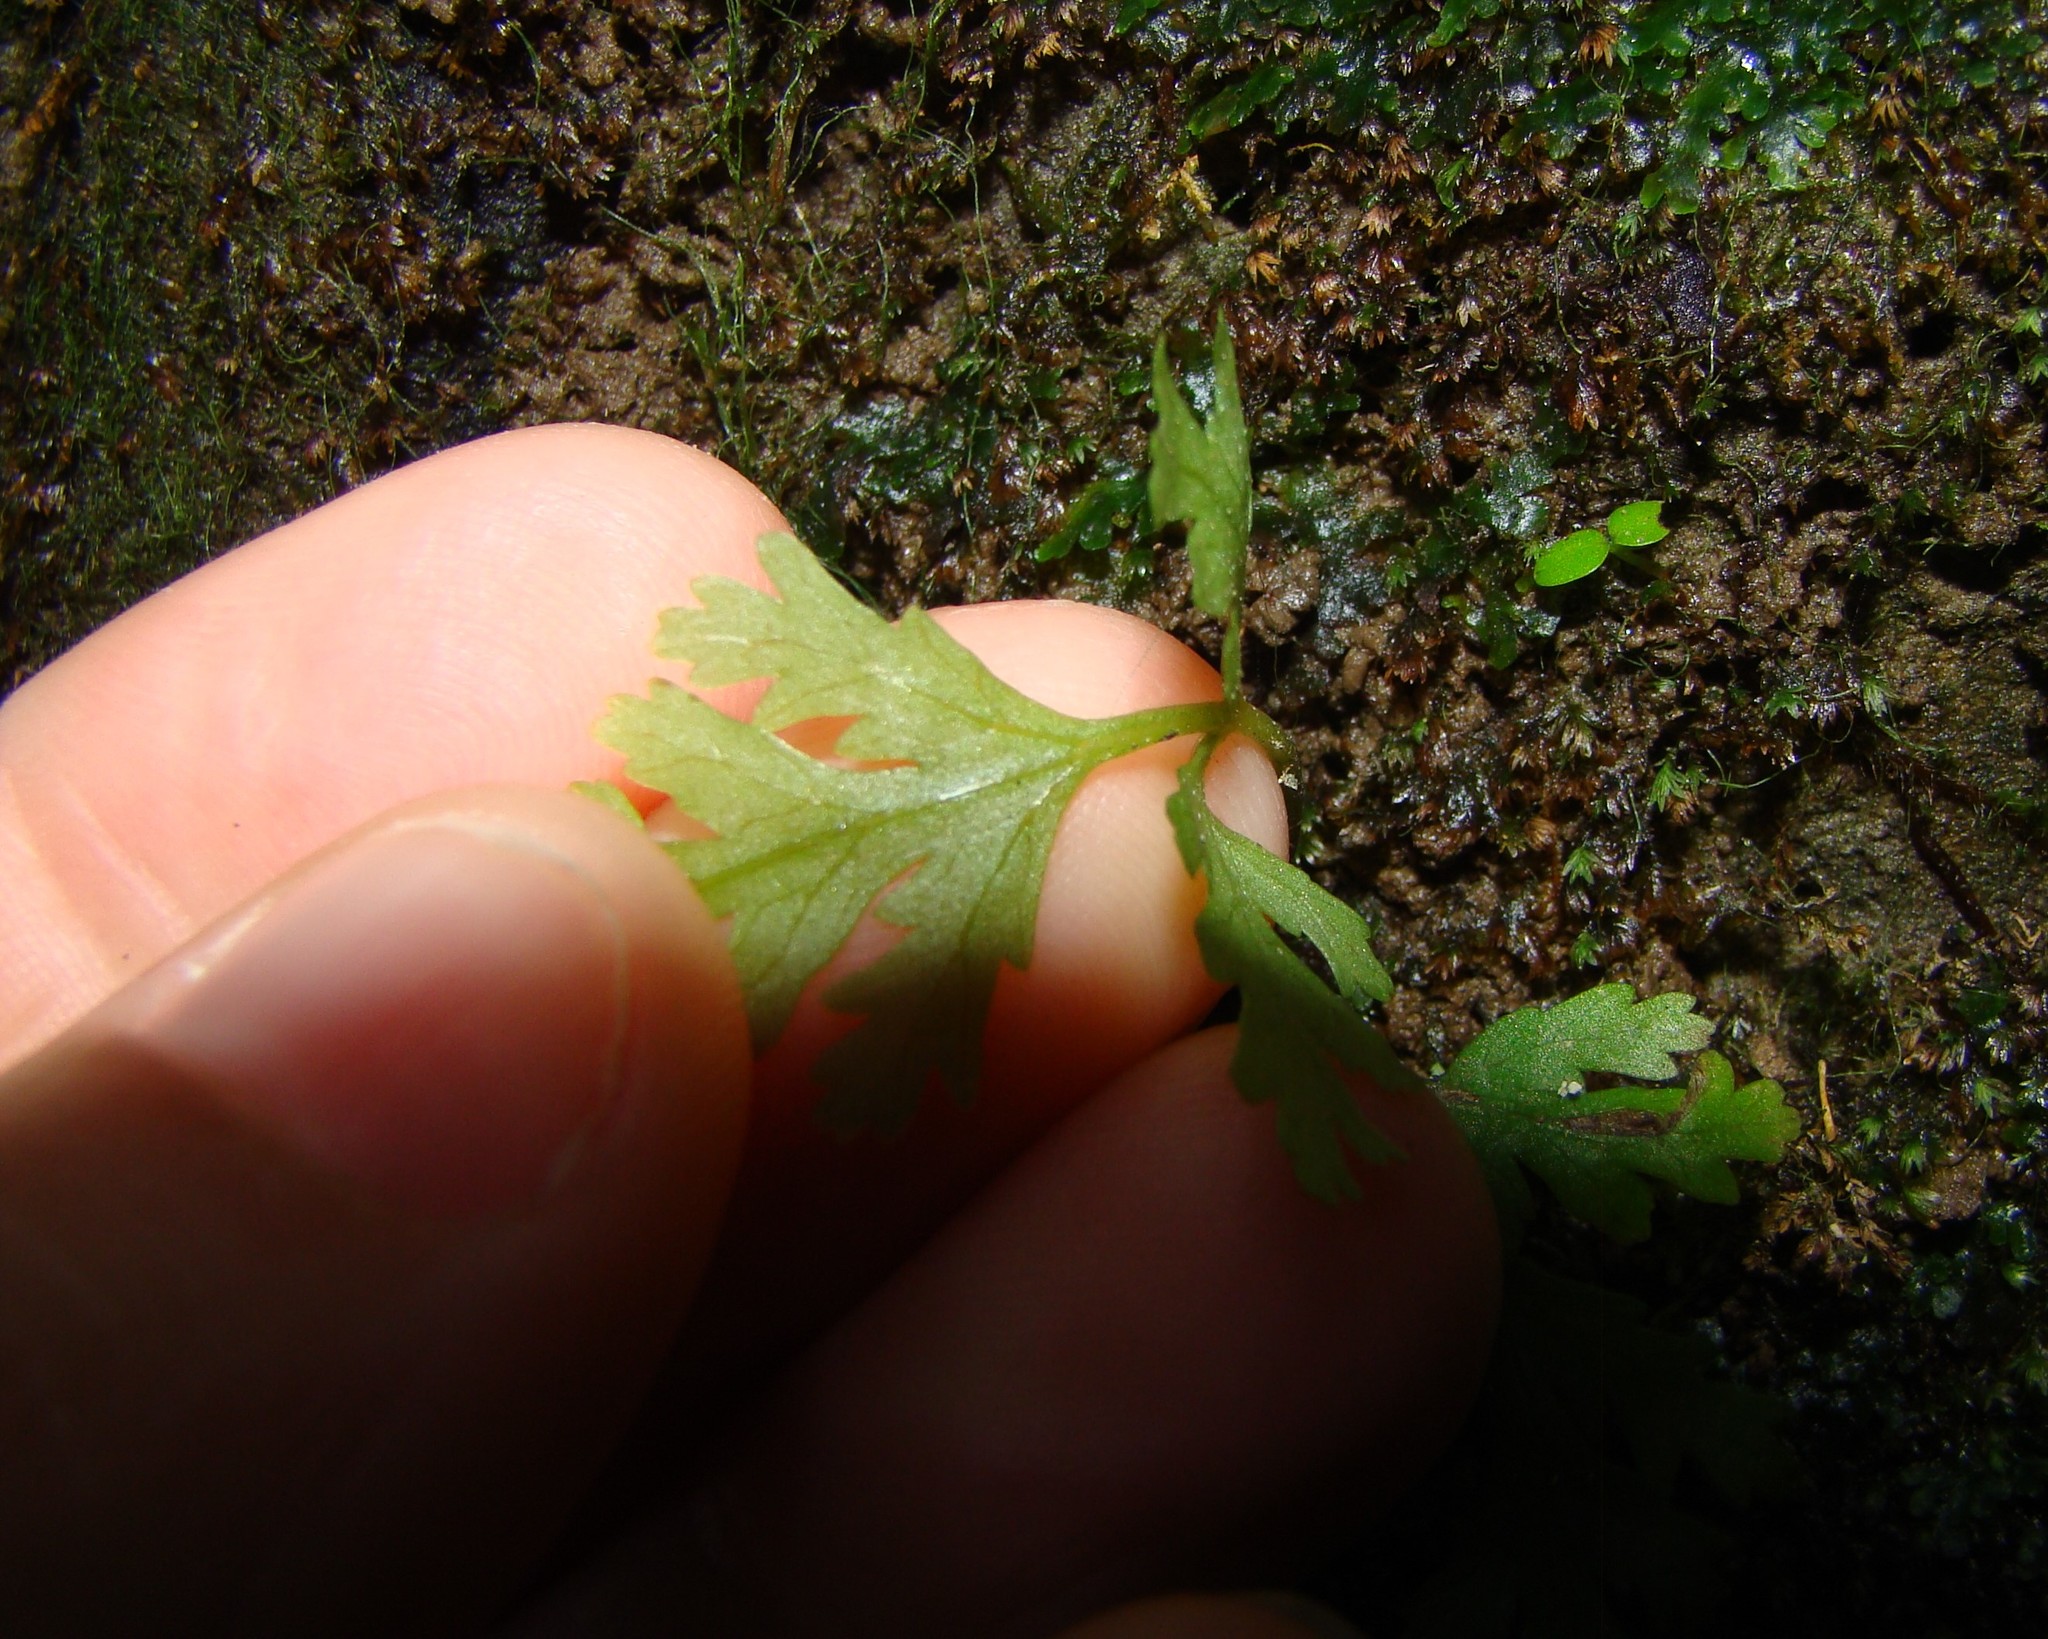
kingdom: Plantae
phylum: Tracheophyta
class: Polypodiopsida
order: Polypodiales
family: Pteridaceae
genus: Pteris
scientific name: Pteris macilenta
